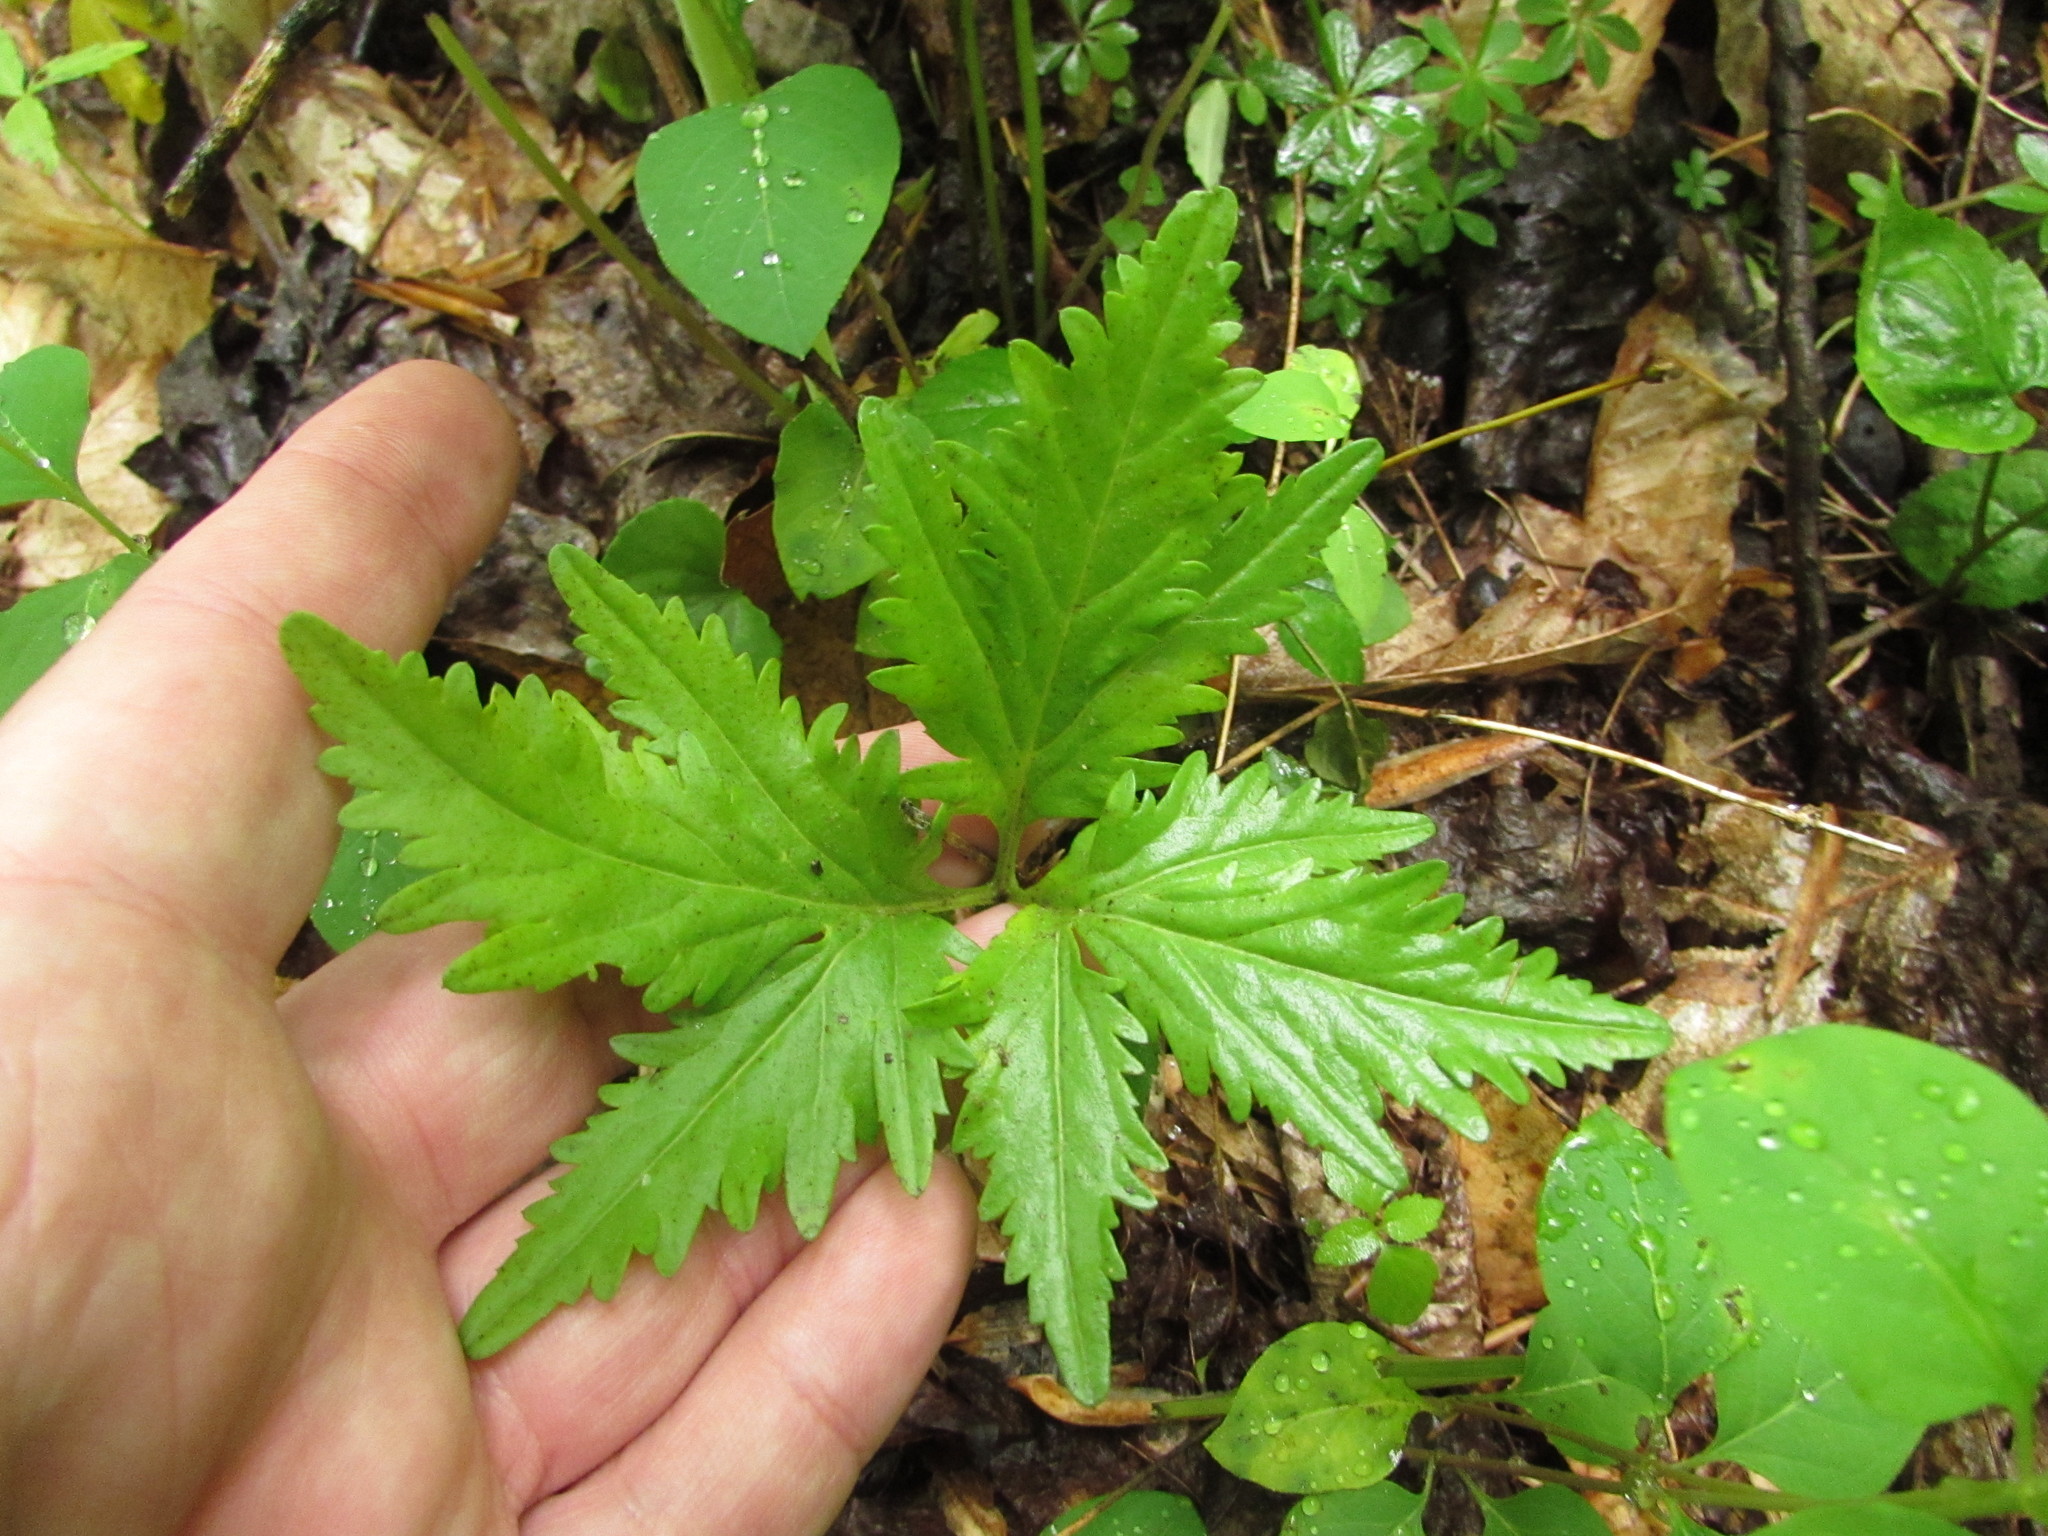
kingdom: Plantae
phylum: Tracheophyta
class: Magnoliopsida
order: Brassicales
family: Brassicaceae
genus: Cardamine
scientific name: Cardamine concatenata
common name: Cut-leaf toothcup
